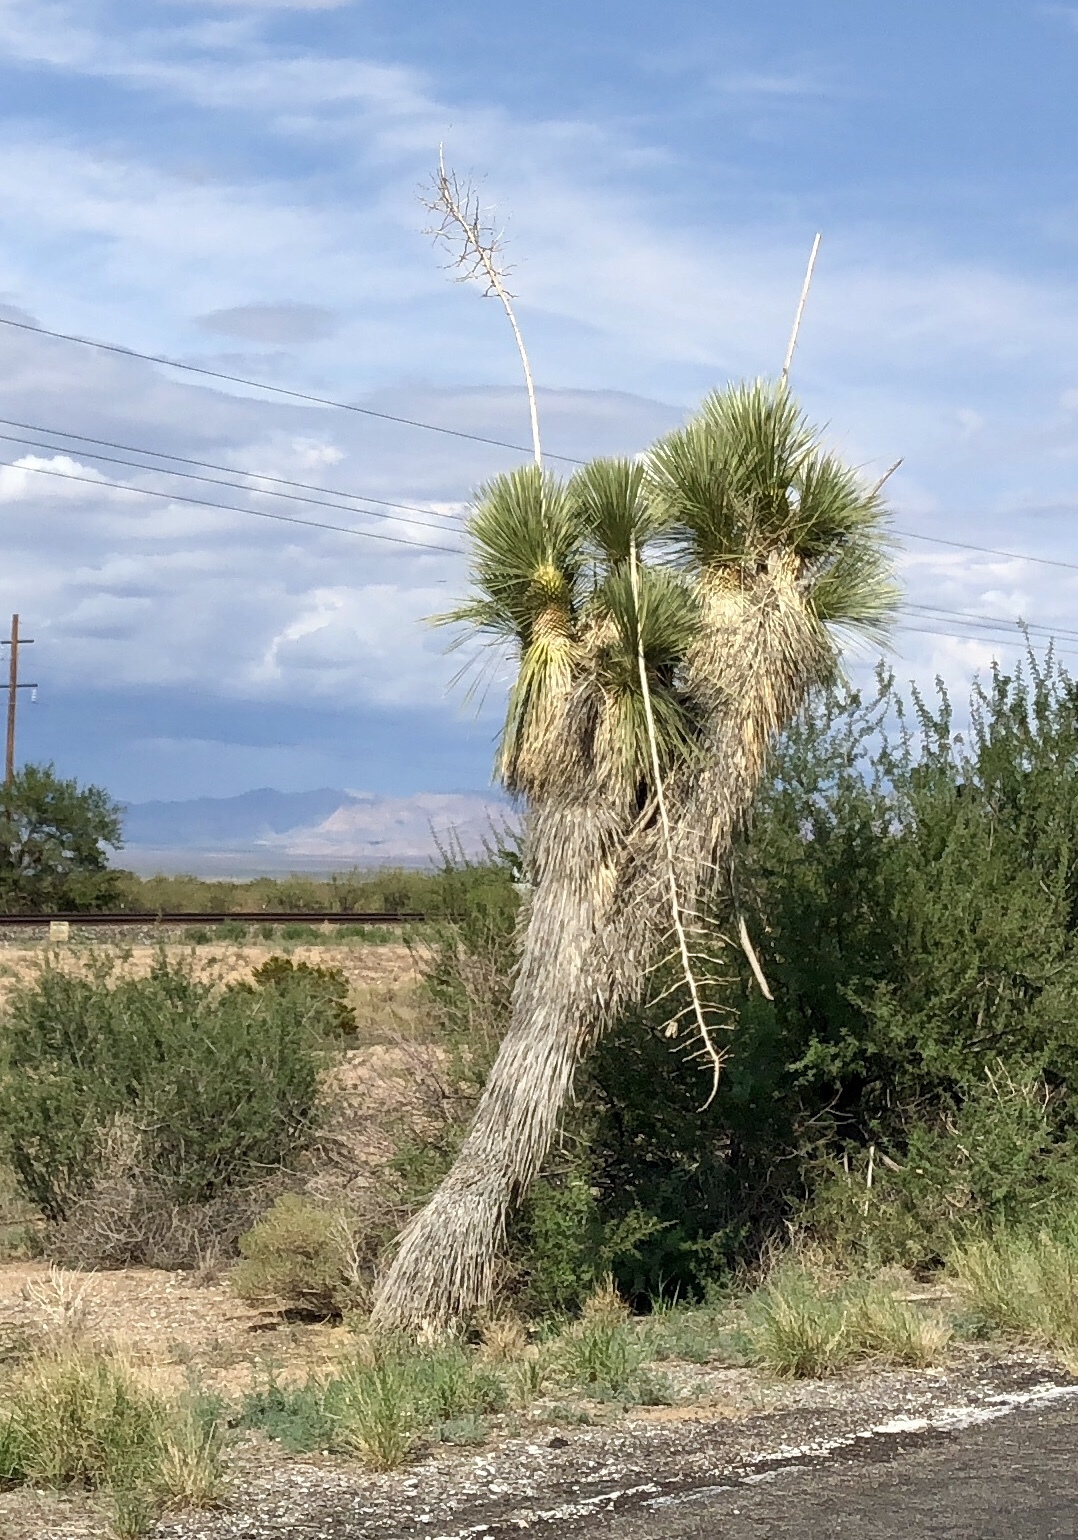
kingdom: Plantae
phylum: Tracheophyta
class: Liliopsida
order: Asparagales
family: Asparagaceae
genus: Yucca
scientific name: Yucca elata
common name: Palmella
